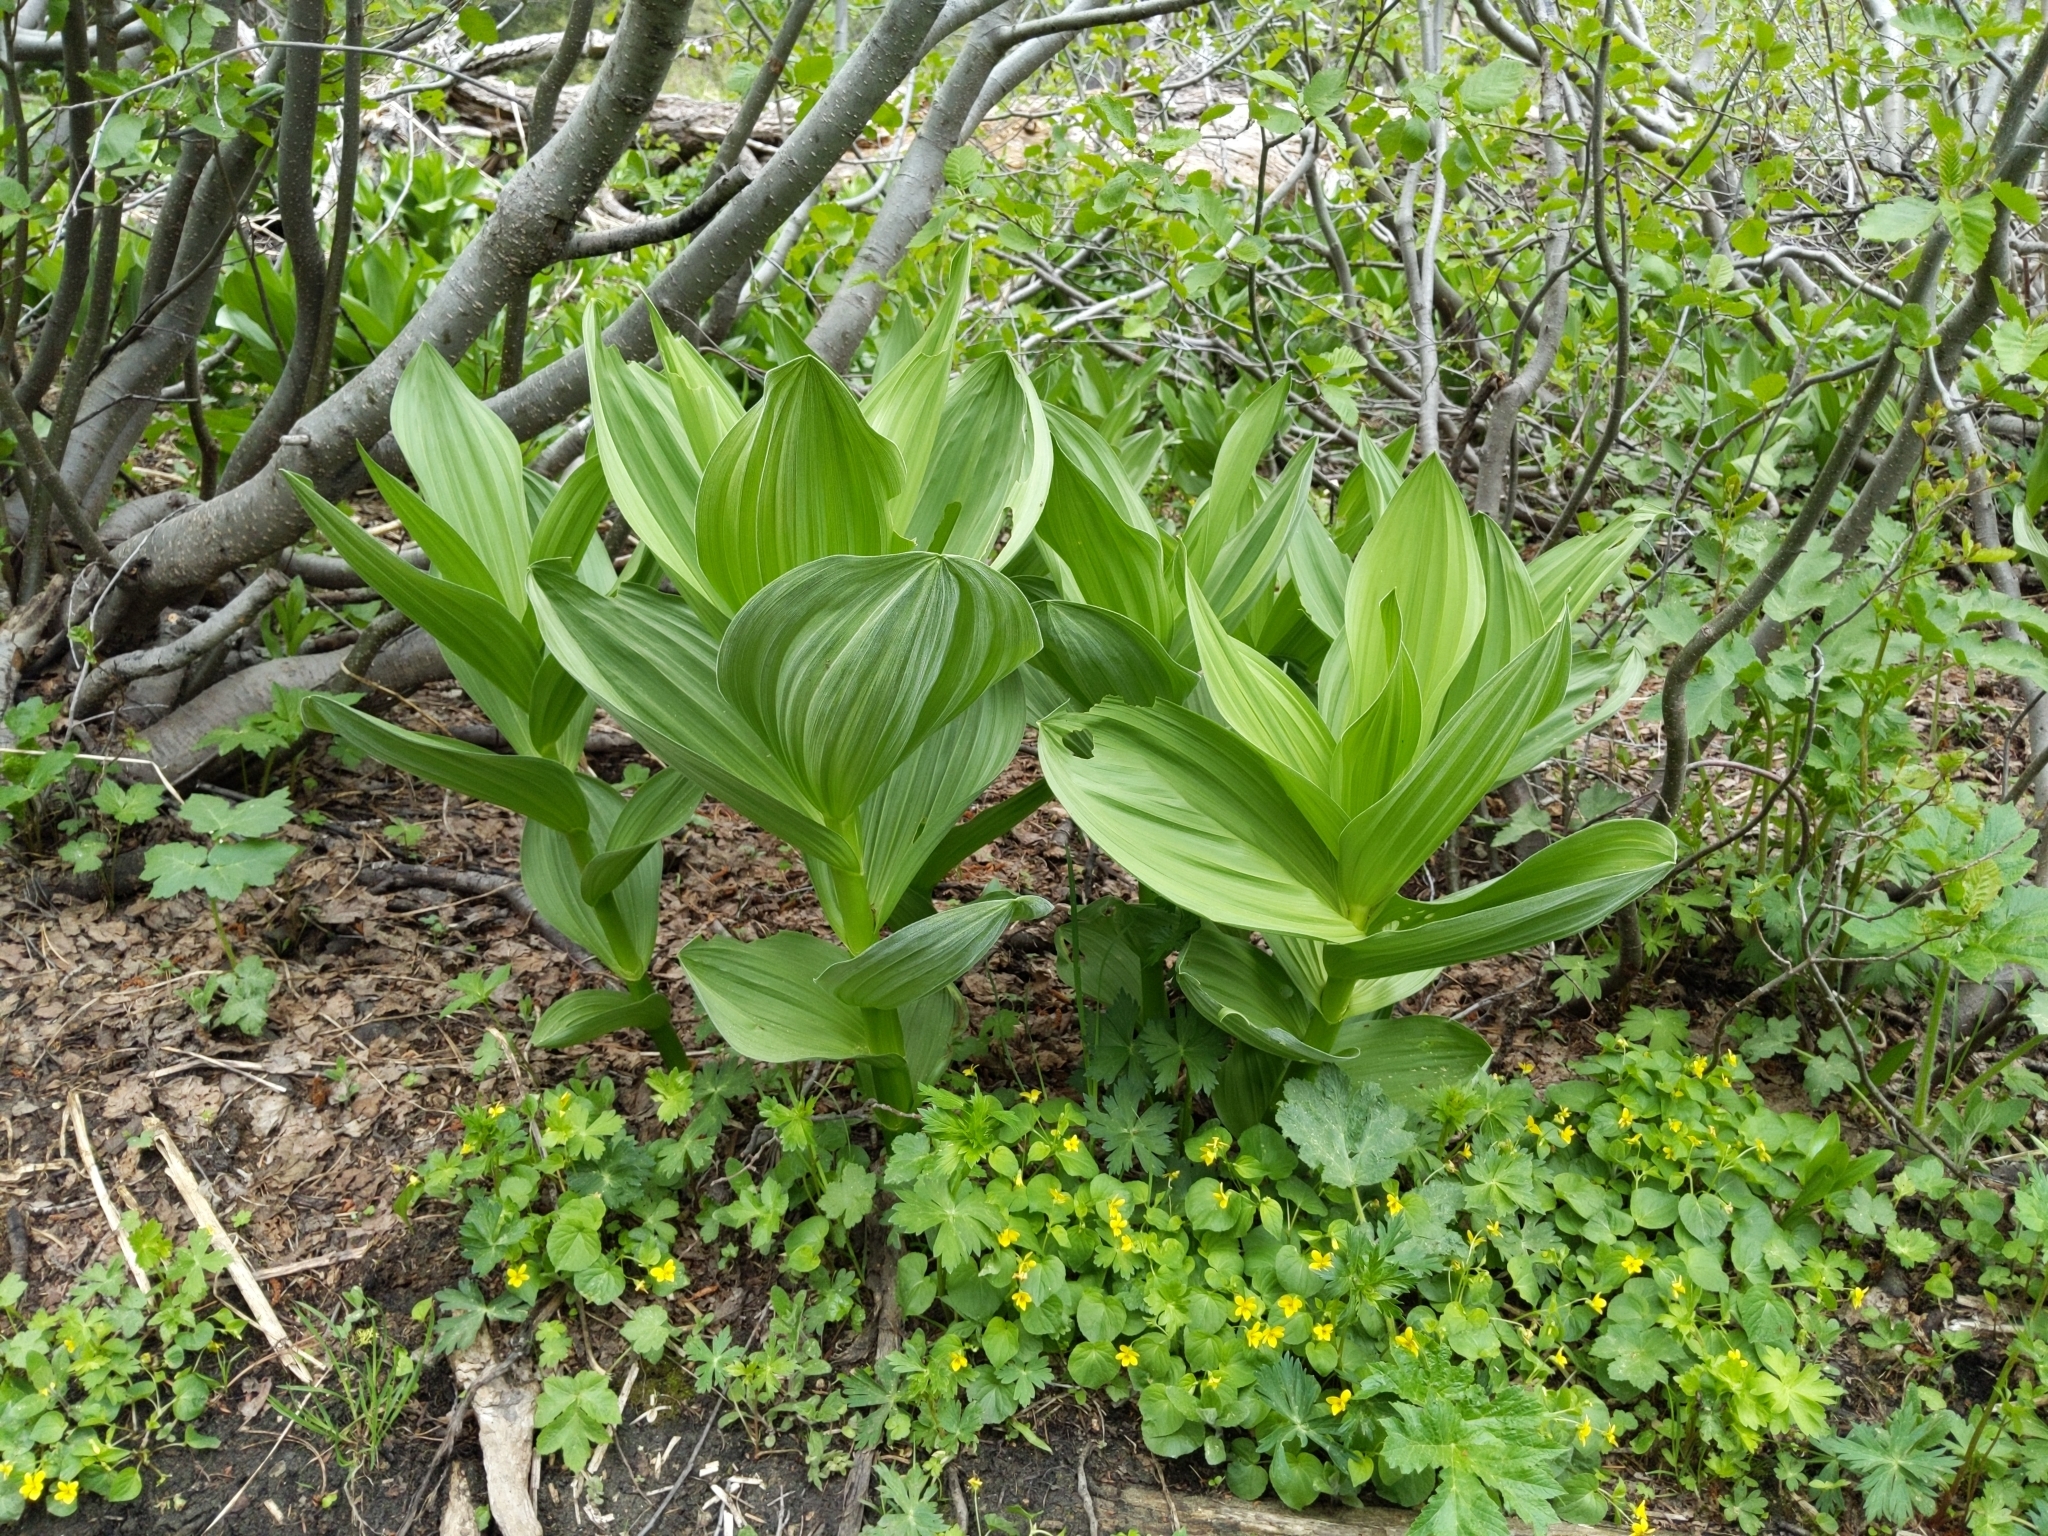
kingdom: Plantae
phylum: Tracheophyta
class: Liliopsida
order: Liliales
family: Melanthiaceae
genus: Veratrum
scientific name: Veratrum californicum
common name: California veratrum
